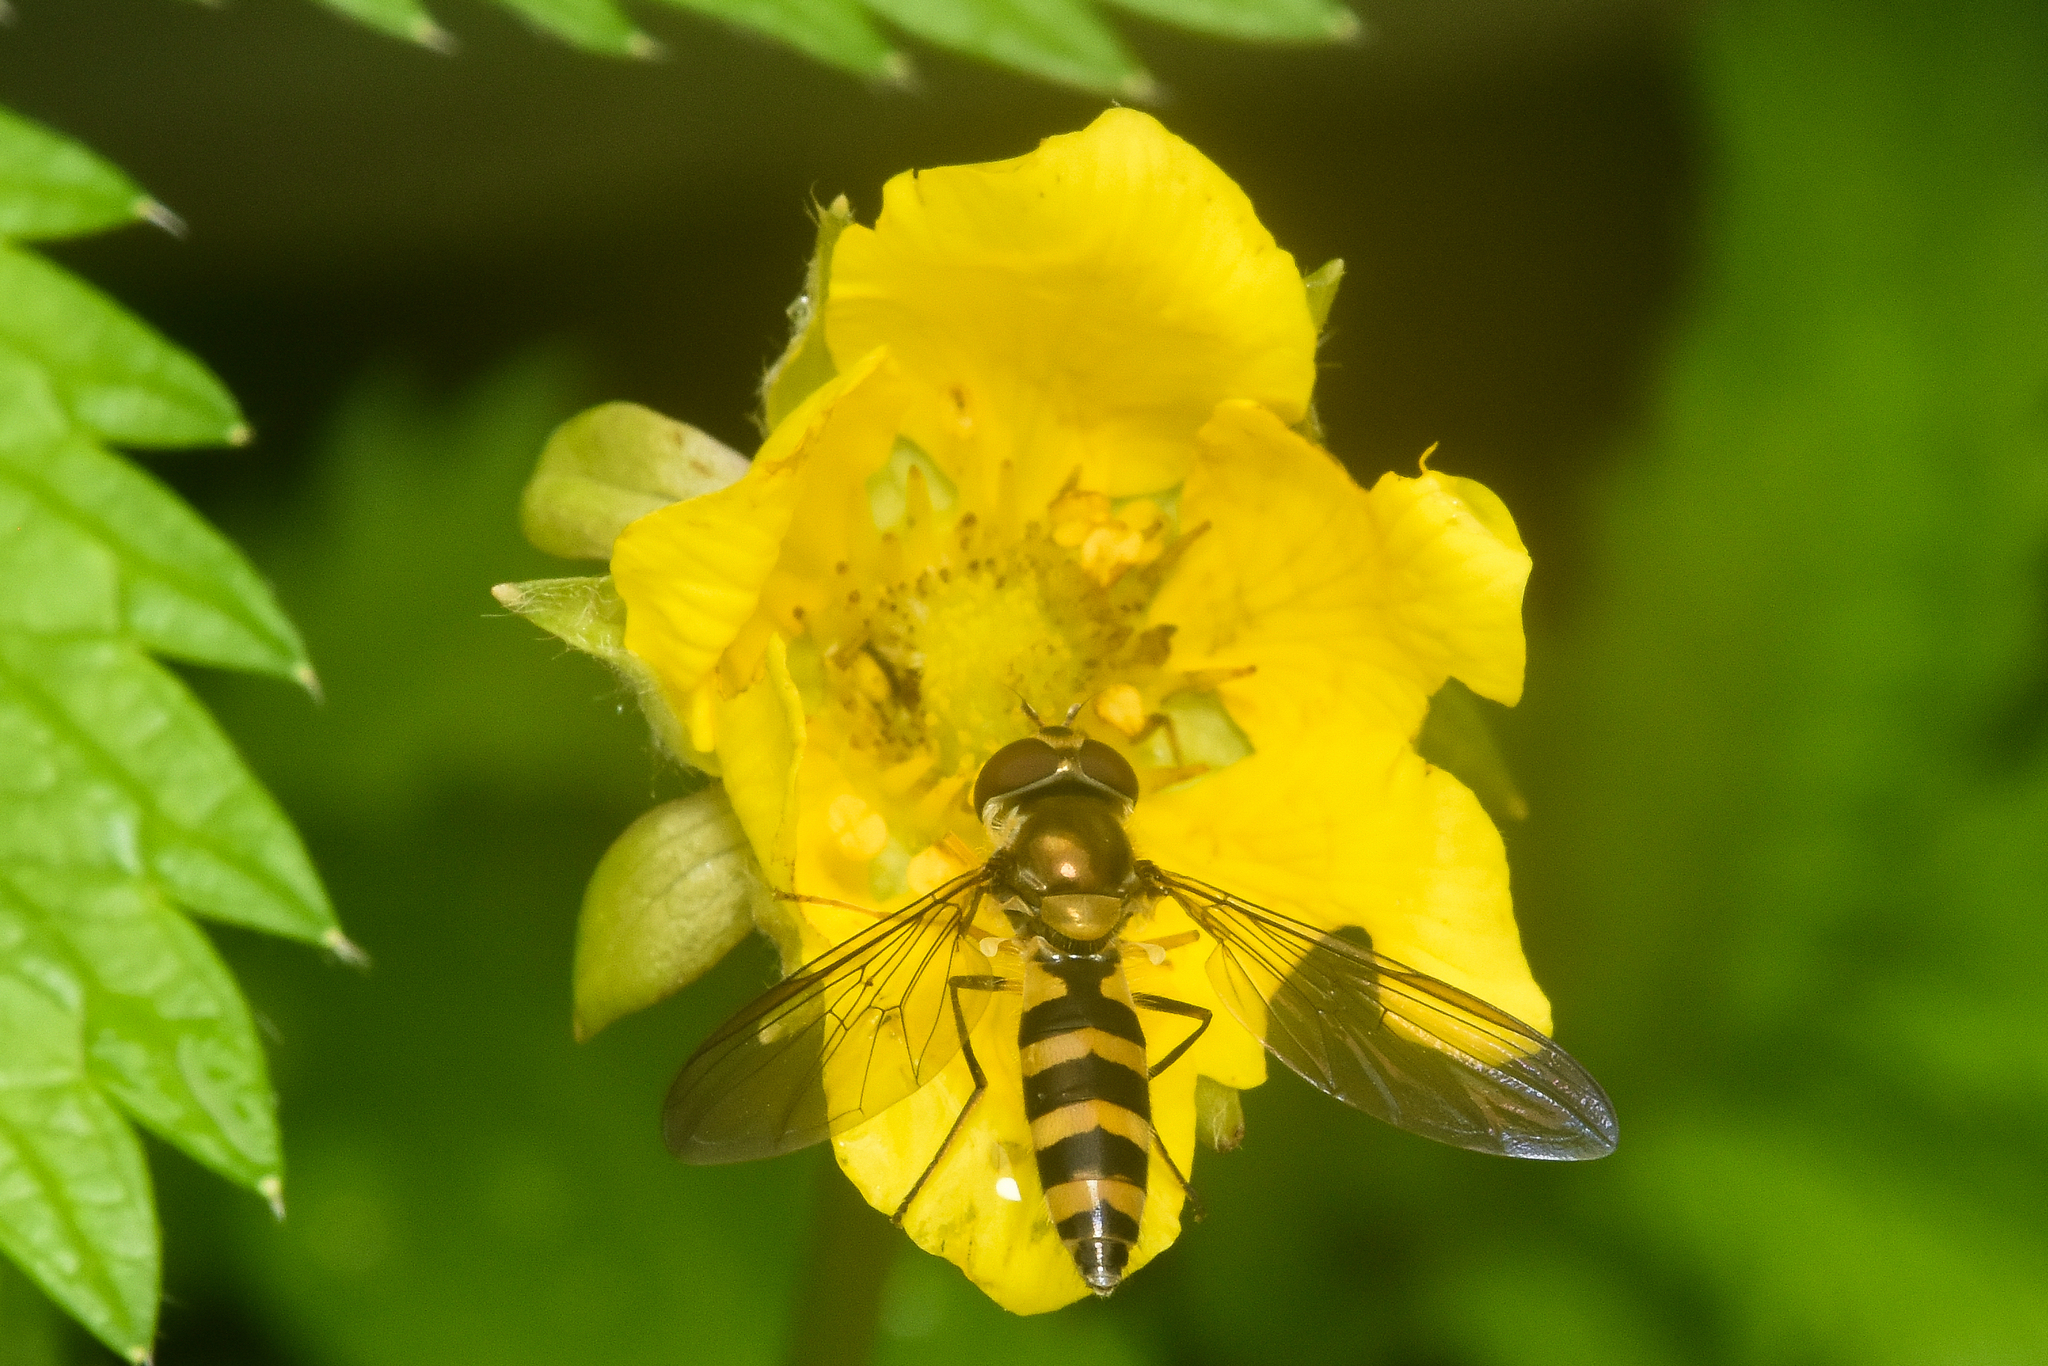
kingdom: Animalia
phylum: Arthropoda
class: Insecta
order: Diptera
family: Syrphidae
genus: Meliscaeva
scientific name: Meliscaeva cinctella
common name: American thintail fly
